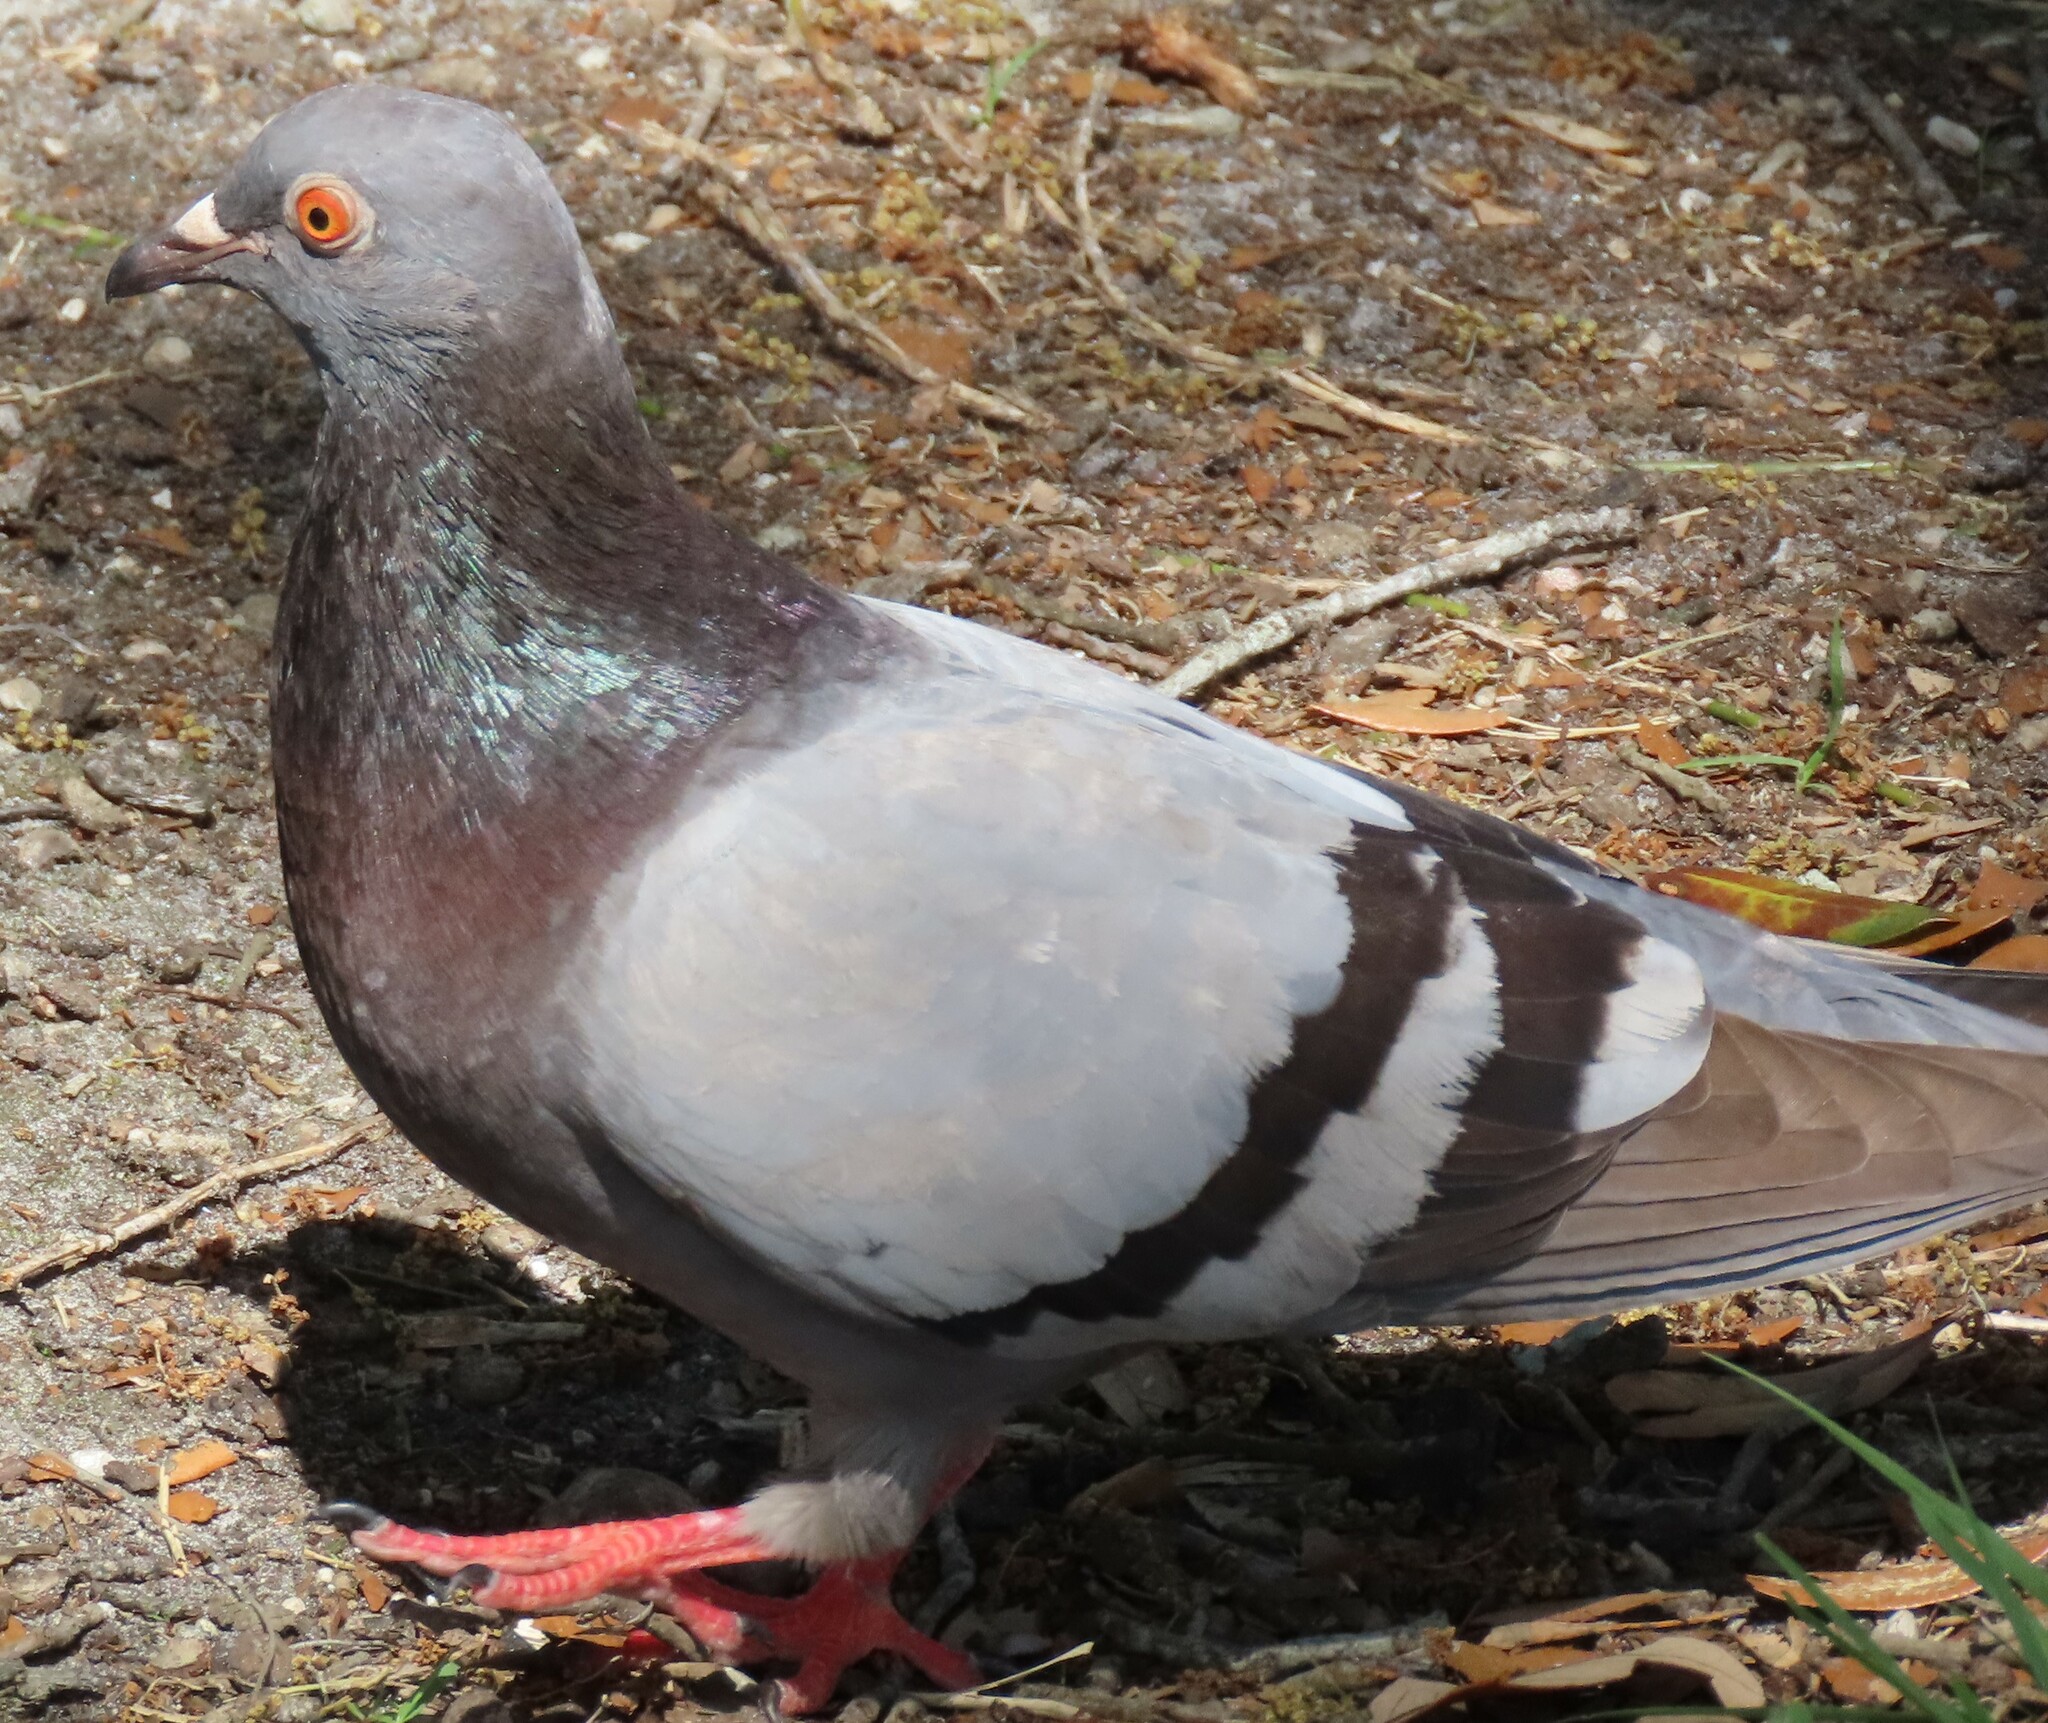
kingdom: Animalia
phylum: Chordata
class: Aves
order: Columbiformes
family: Columbidae
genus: Columba
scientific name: Columba livia
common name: Rock pigeon
